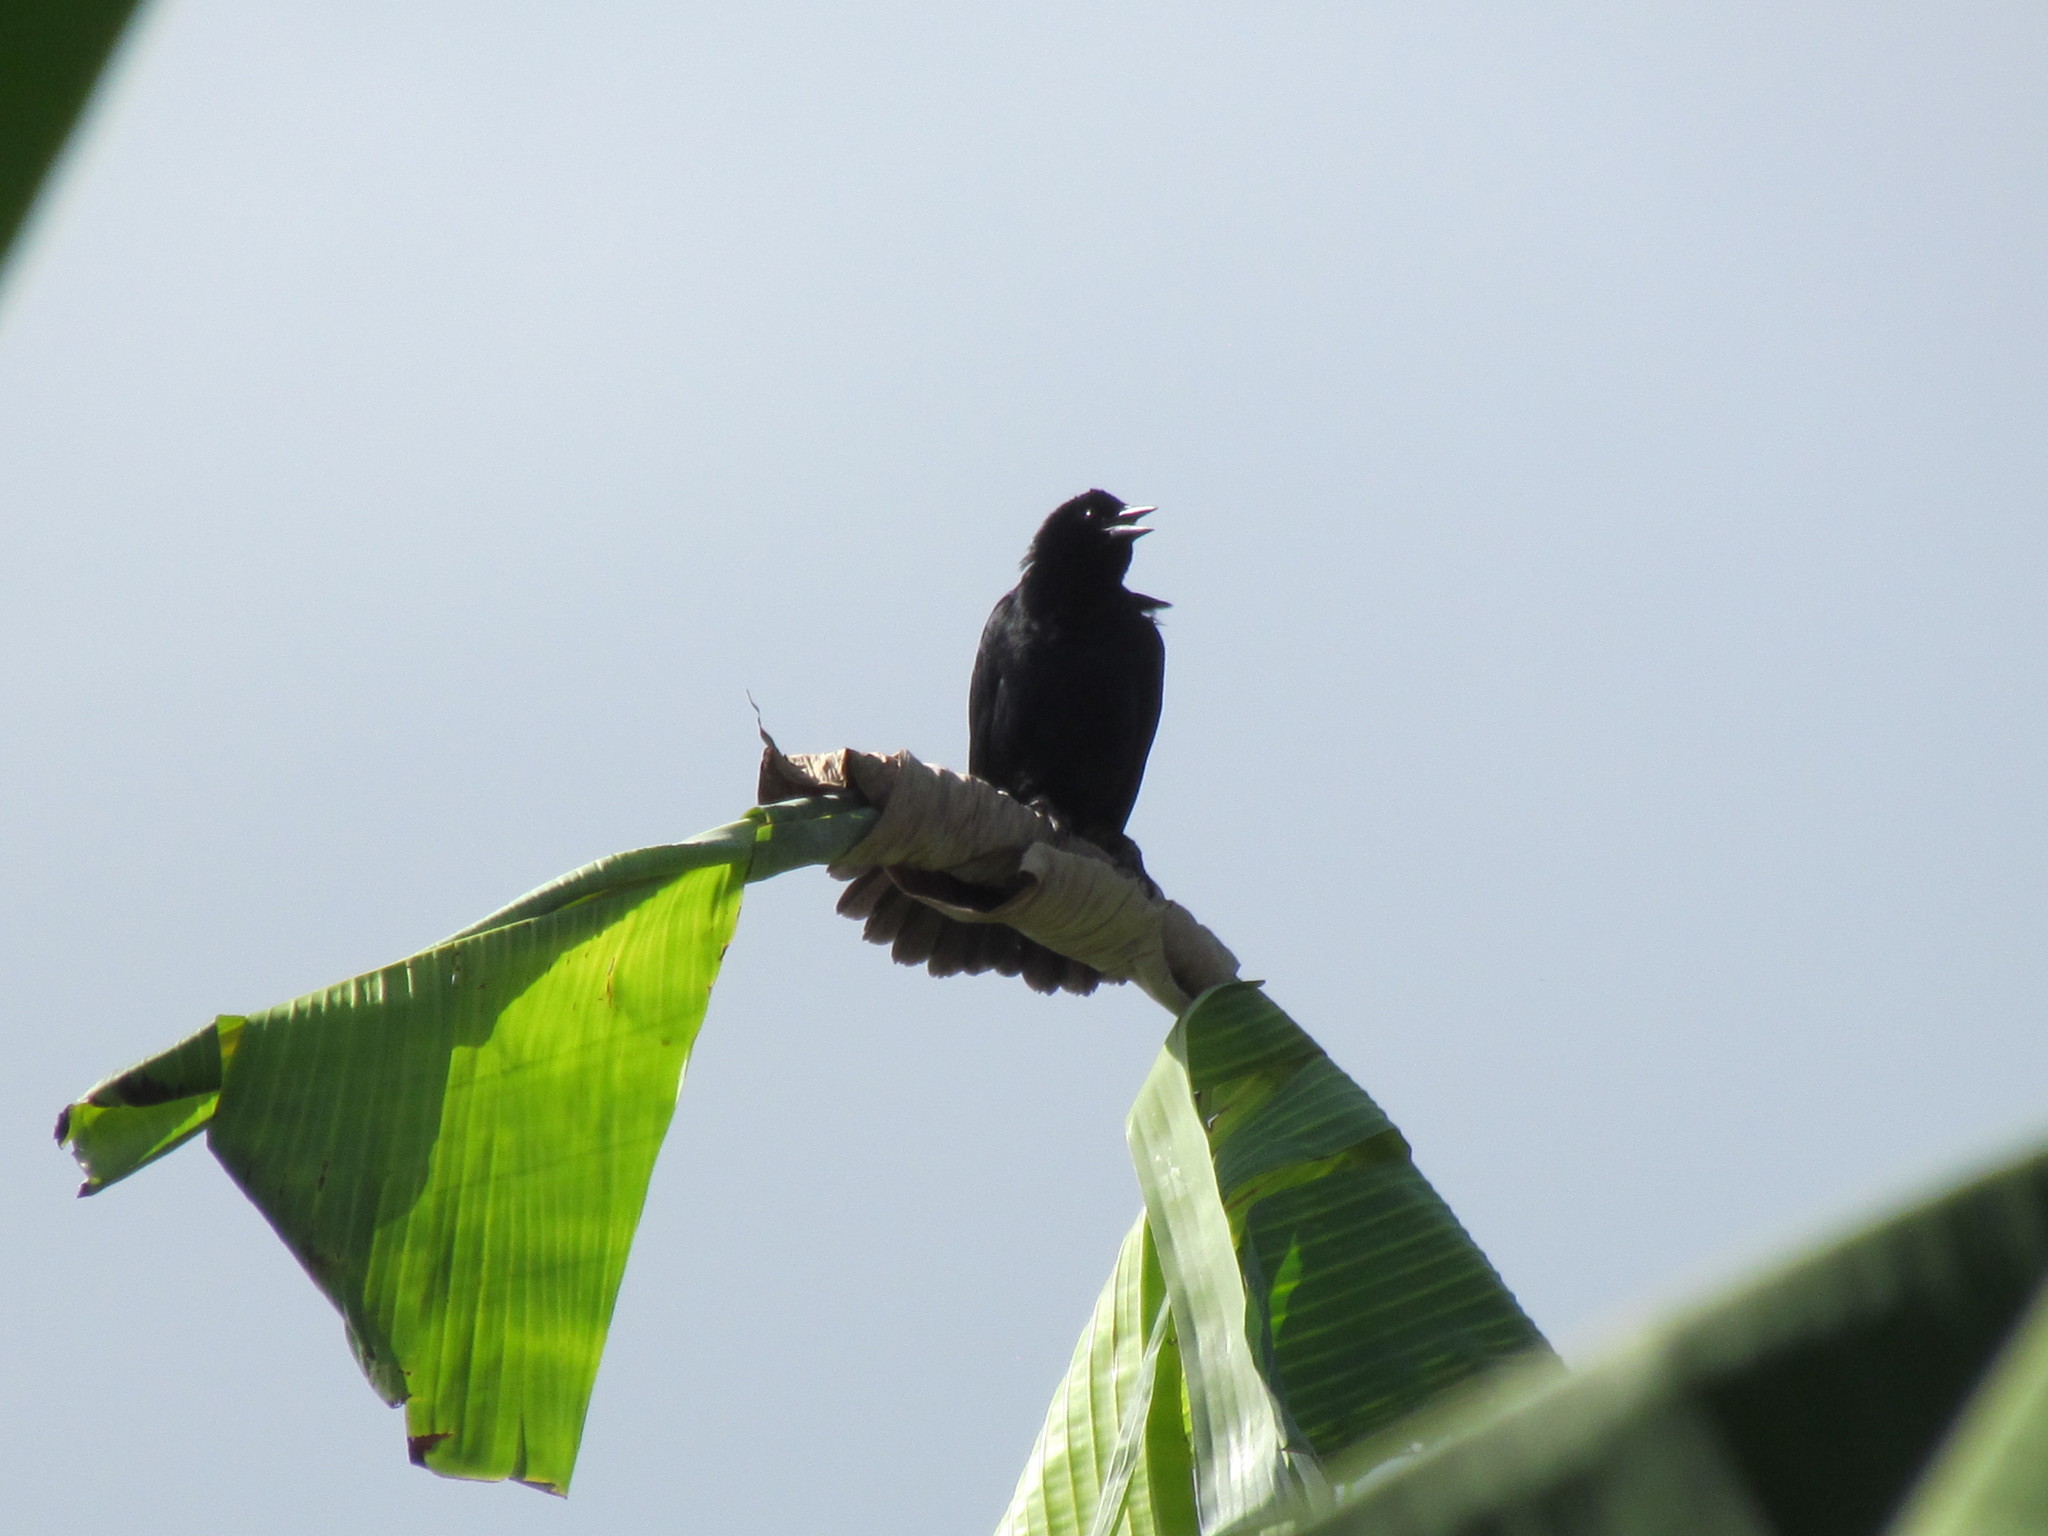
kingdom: Animalia
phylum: Chordata
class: Aves
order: Passeriformes
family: Icteridae
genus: Dives
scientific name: Dives dives
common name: Melodious blackbird
